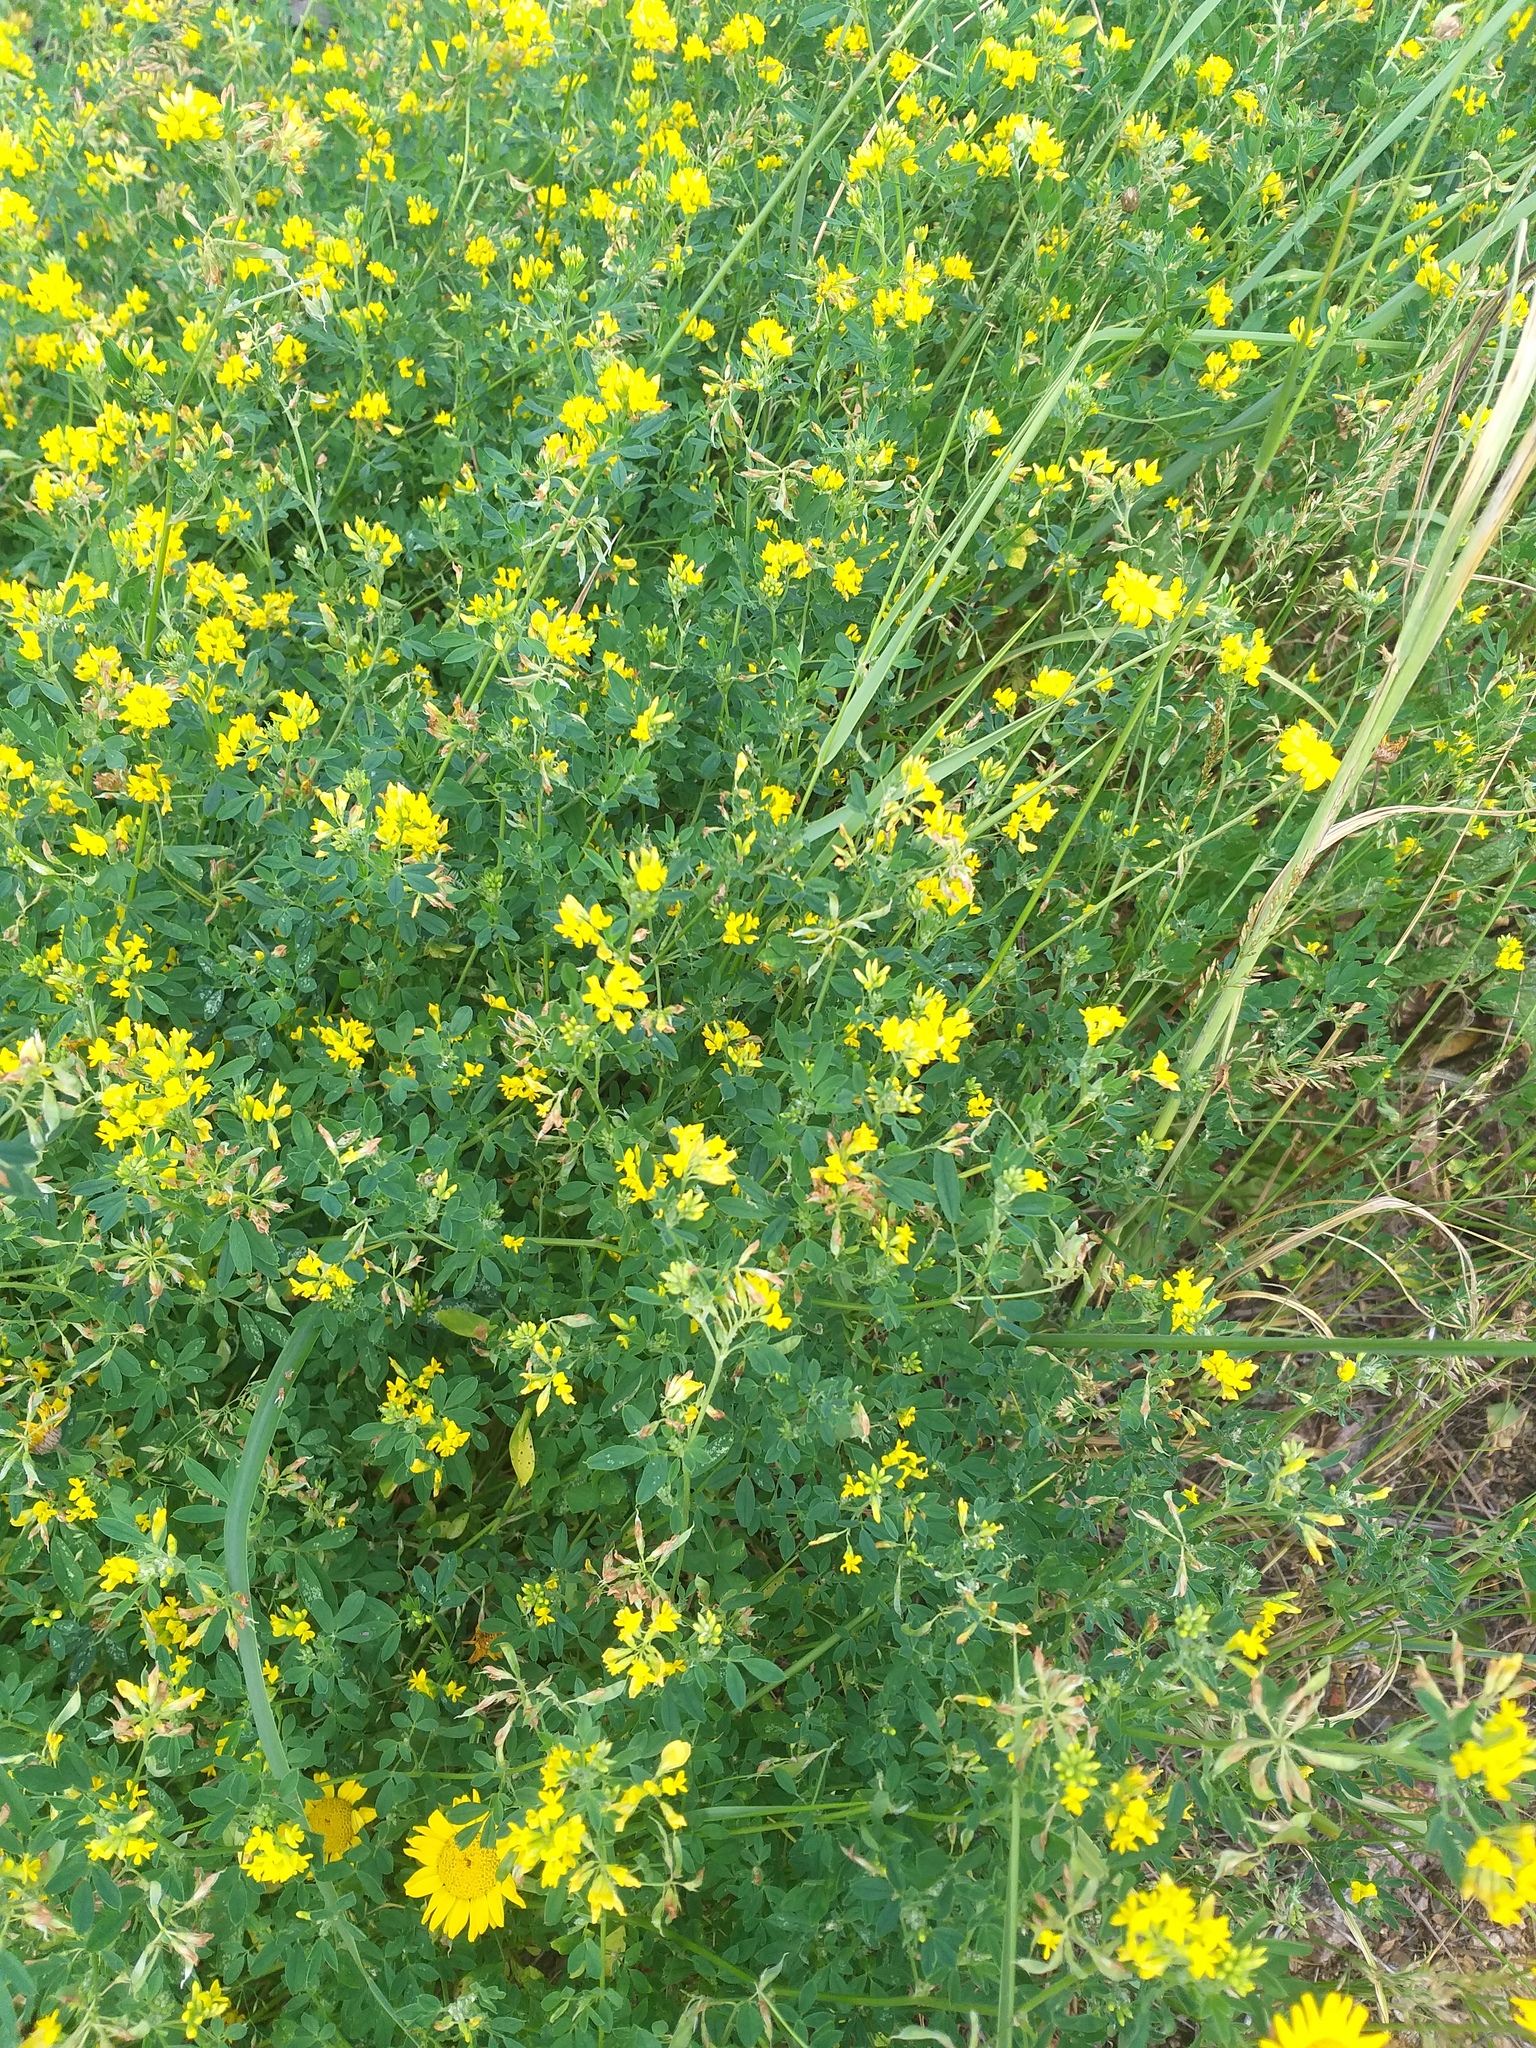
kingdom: Plantae
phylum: Tracheophyta
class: Magnoliopsida
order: Fabales
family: Fabaceae
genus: Medicago
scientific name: Medicago falcata
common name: Sickle medick
